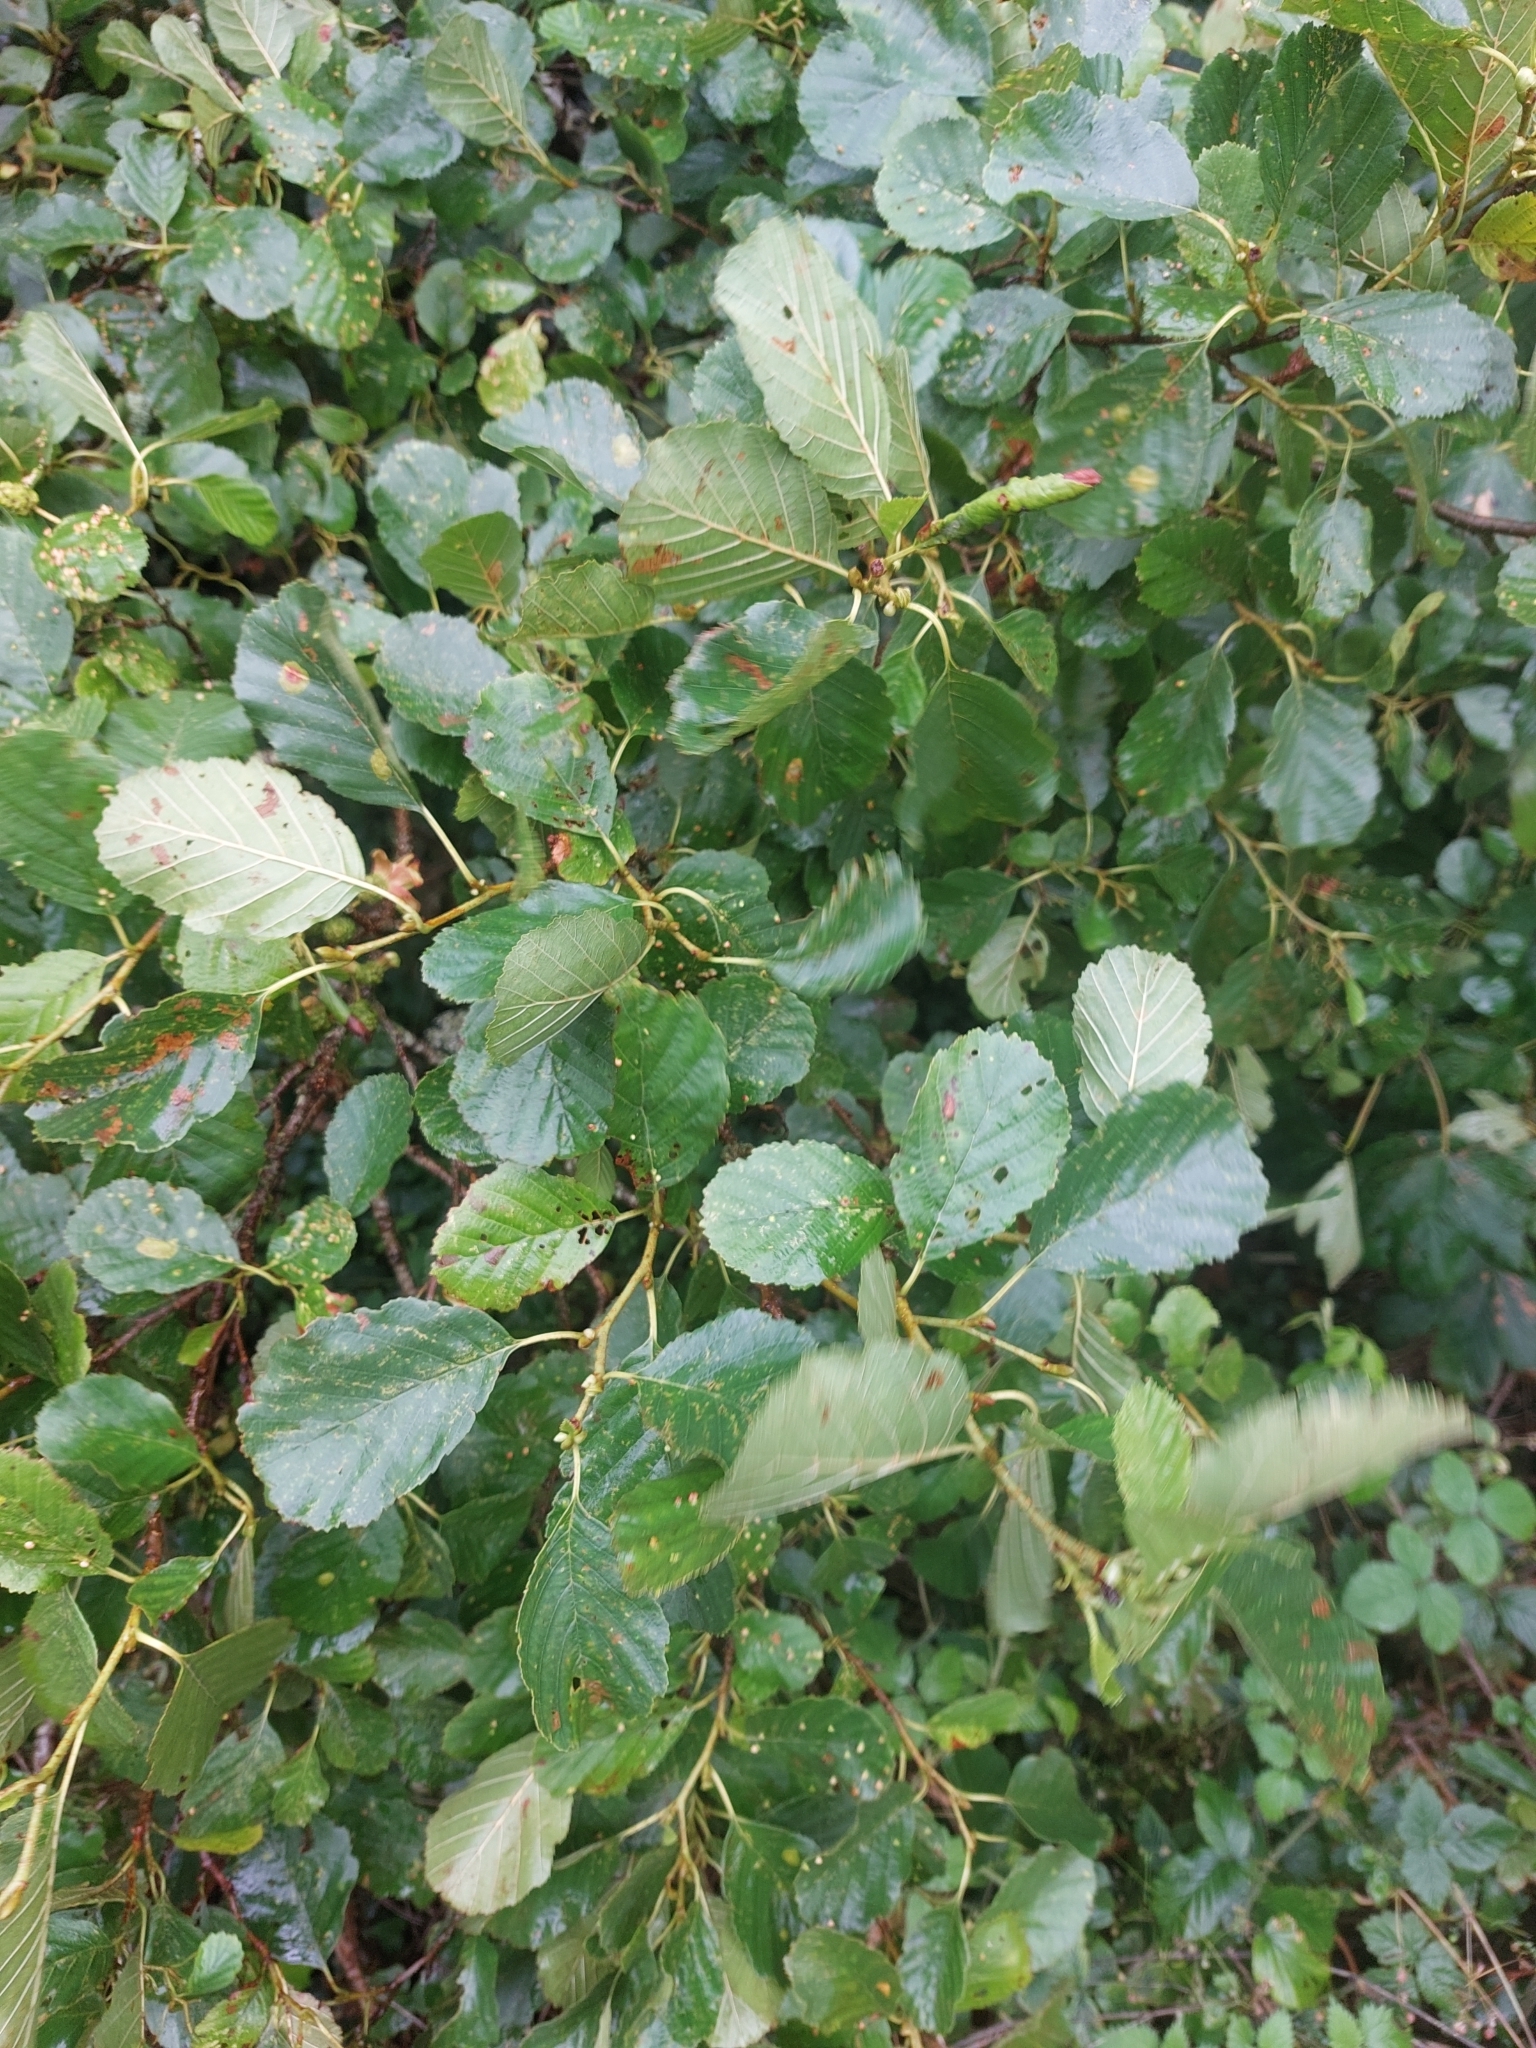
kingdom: Plantae
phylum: Tracheophyta
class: Magnoliopsida
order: Fagales
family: Betulaceae
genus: Alnus
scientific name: Alnus glutinosa
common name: Black alder
